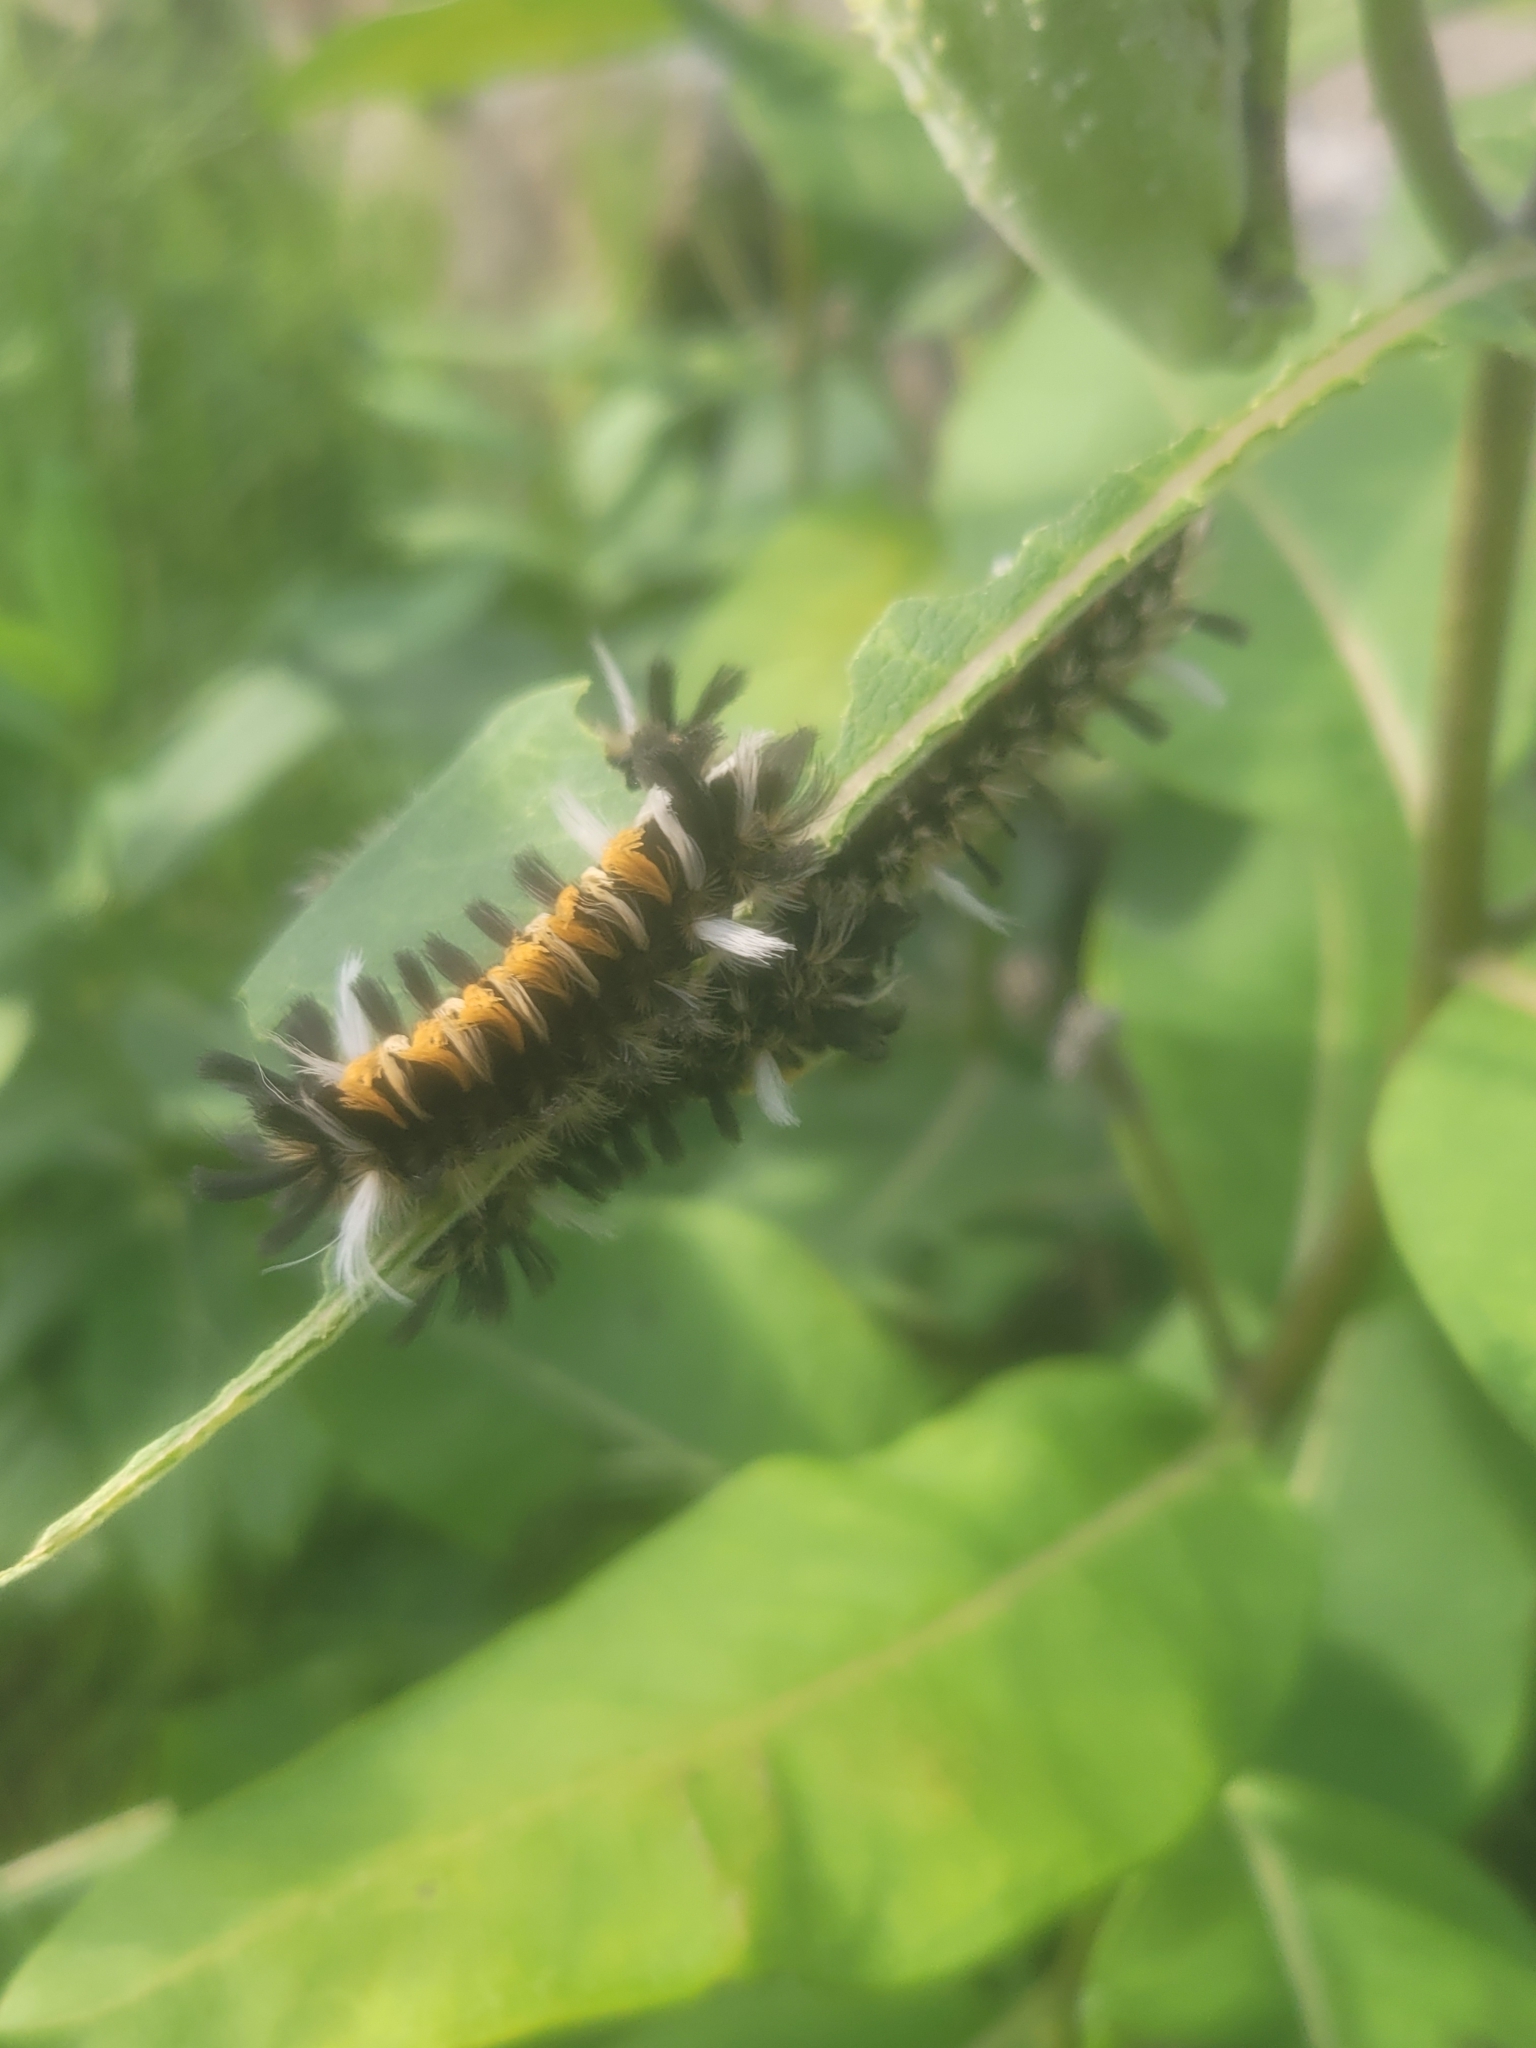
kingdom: Animalia
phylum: Arthropoda
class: Insecta
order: Lepidoptera
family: Erebidae
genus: Euchaetes
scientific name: Euchaetes egle
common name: Milkweed tussock moth
